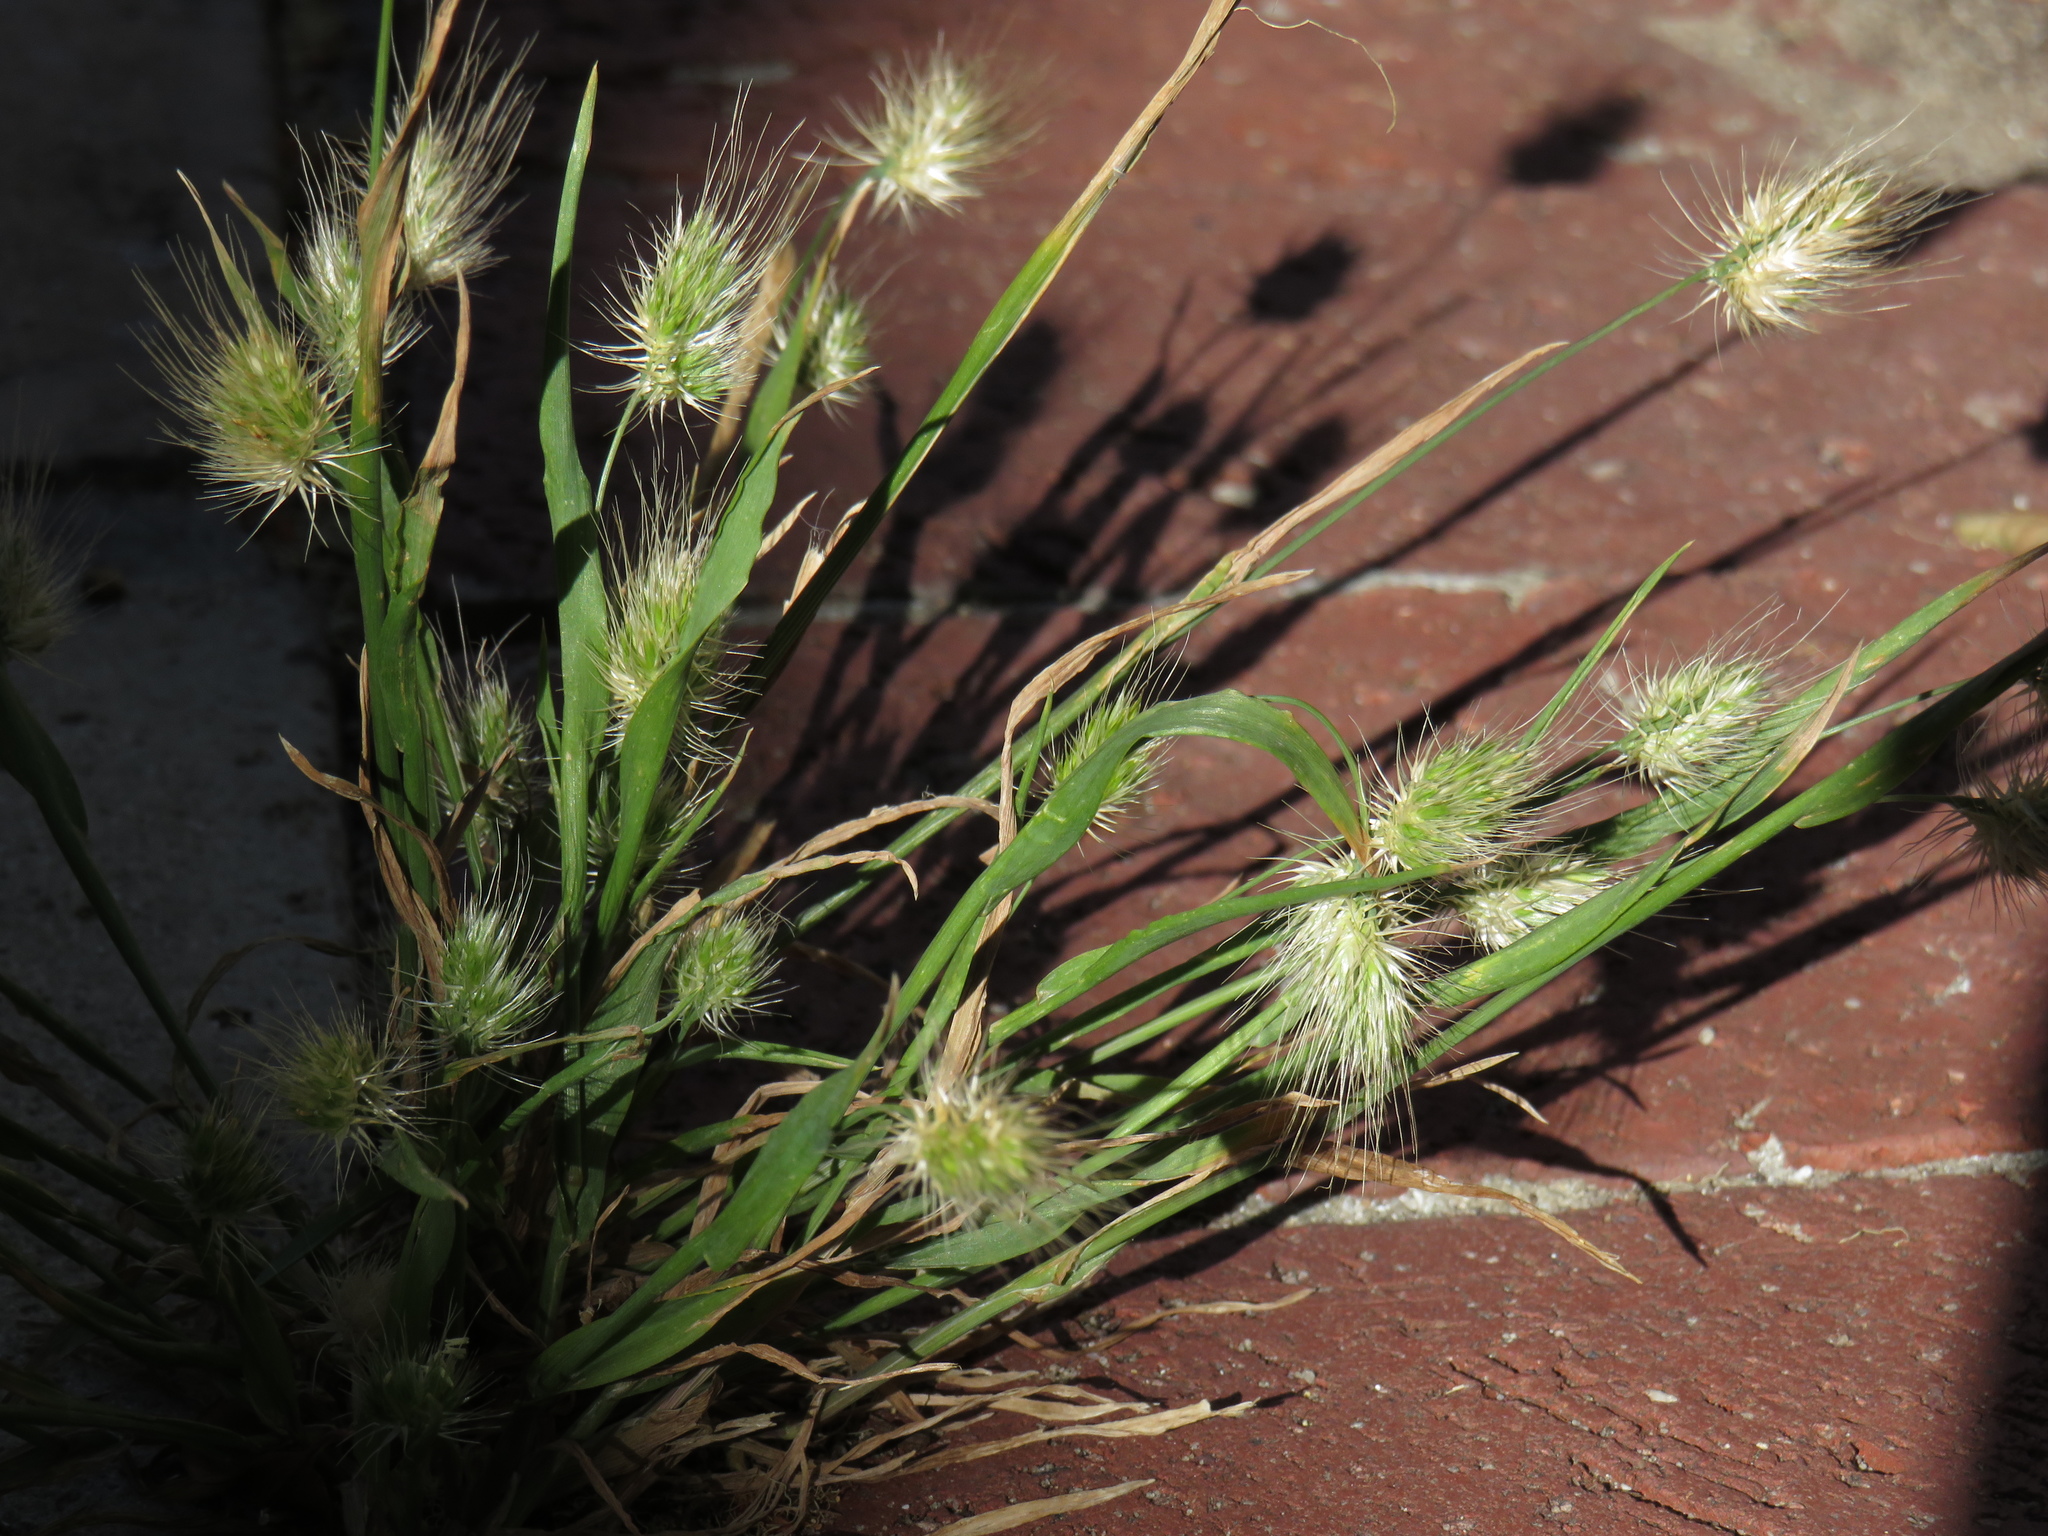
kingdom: Plantae
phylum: Tracheophyta
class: Liliopsida
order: Poales
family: Poaceae
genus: Cynosurus
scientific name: Cynosurus echinatus
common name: Rough dog's-tail
